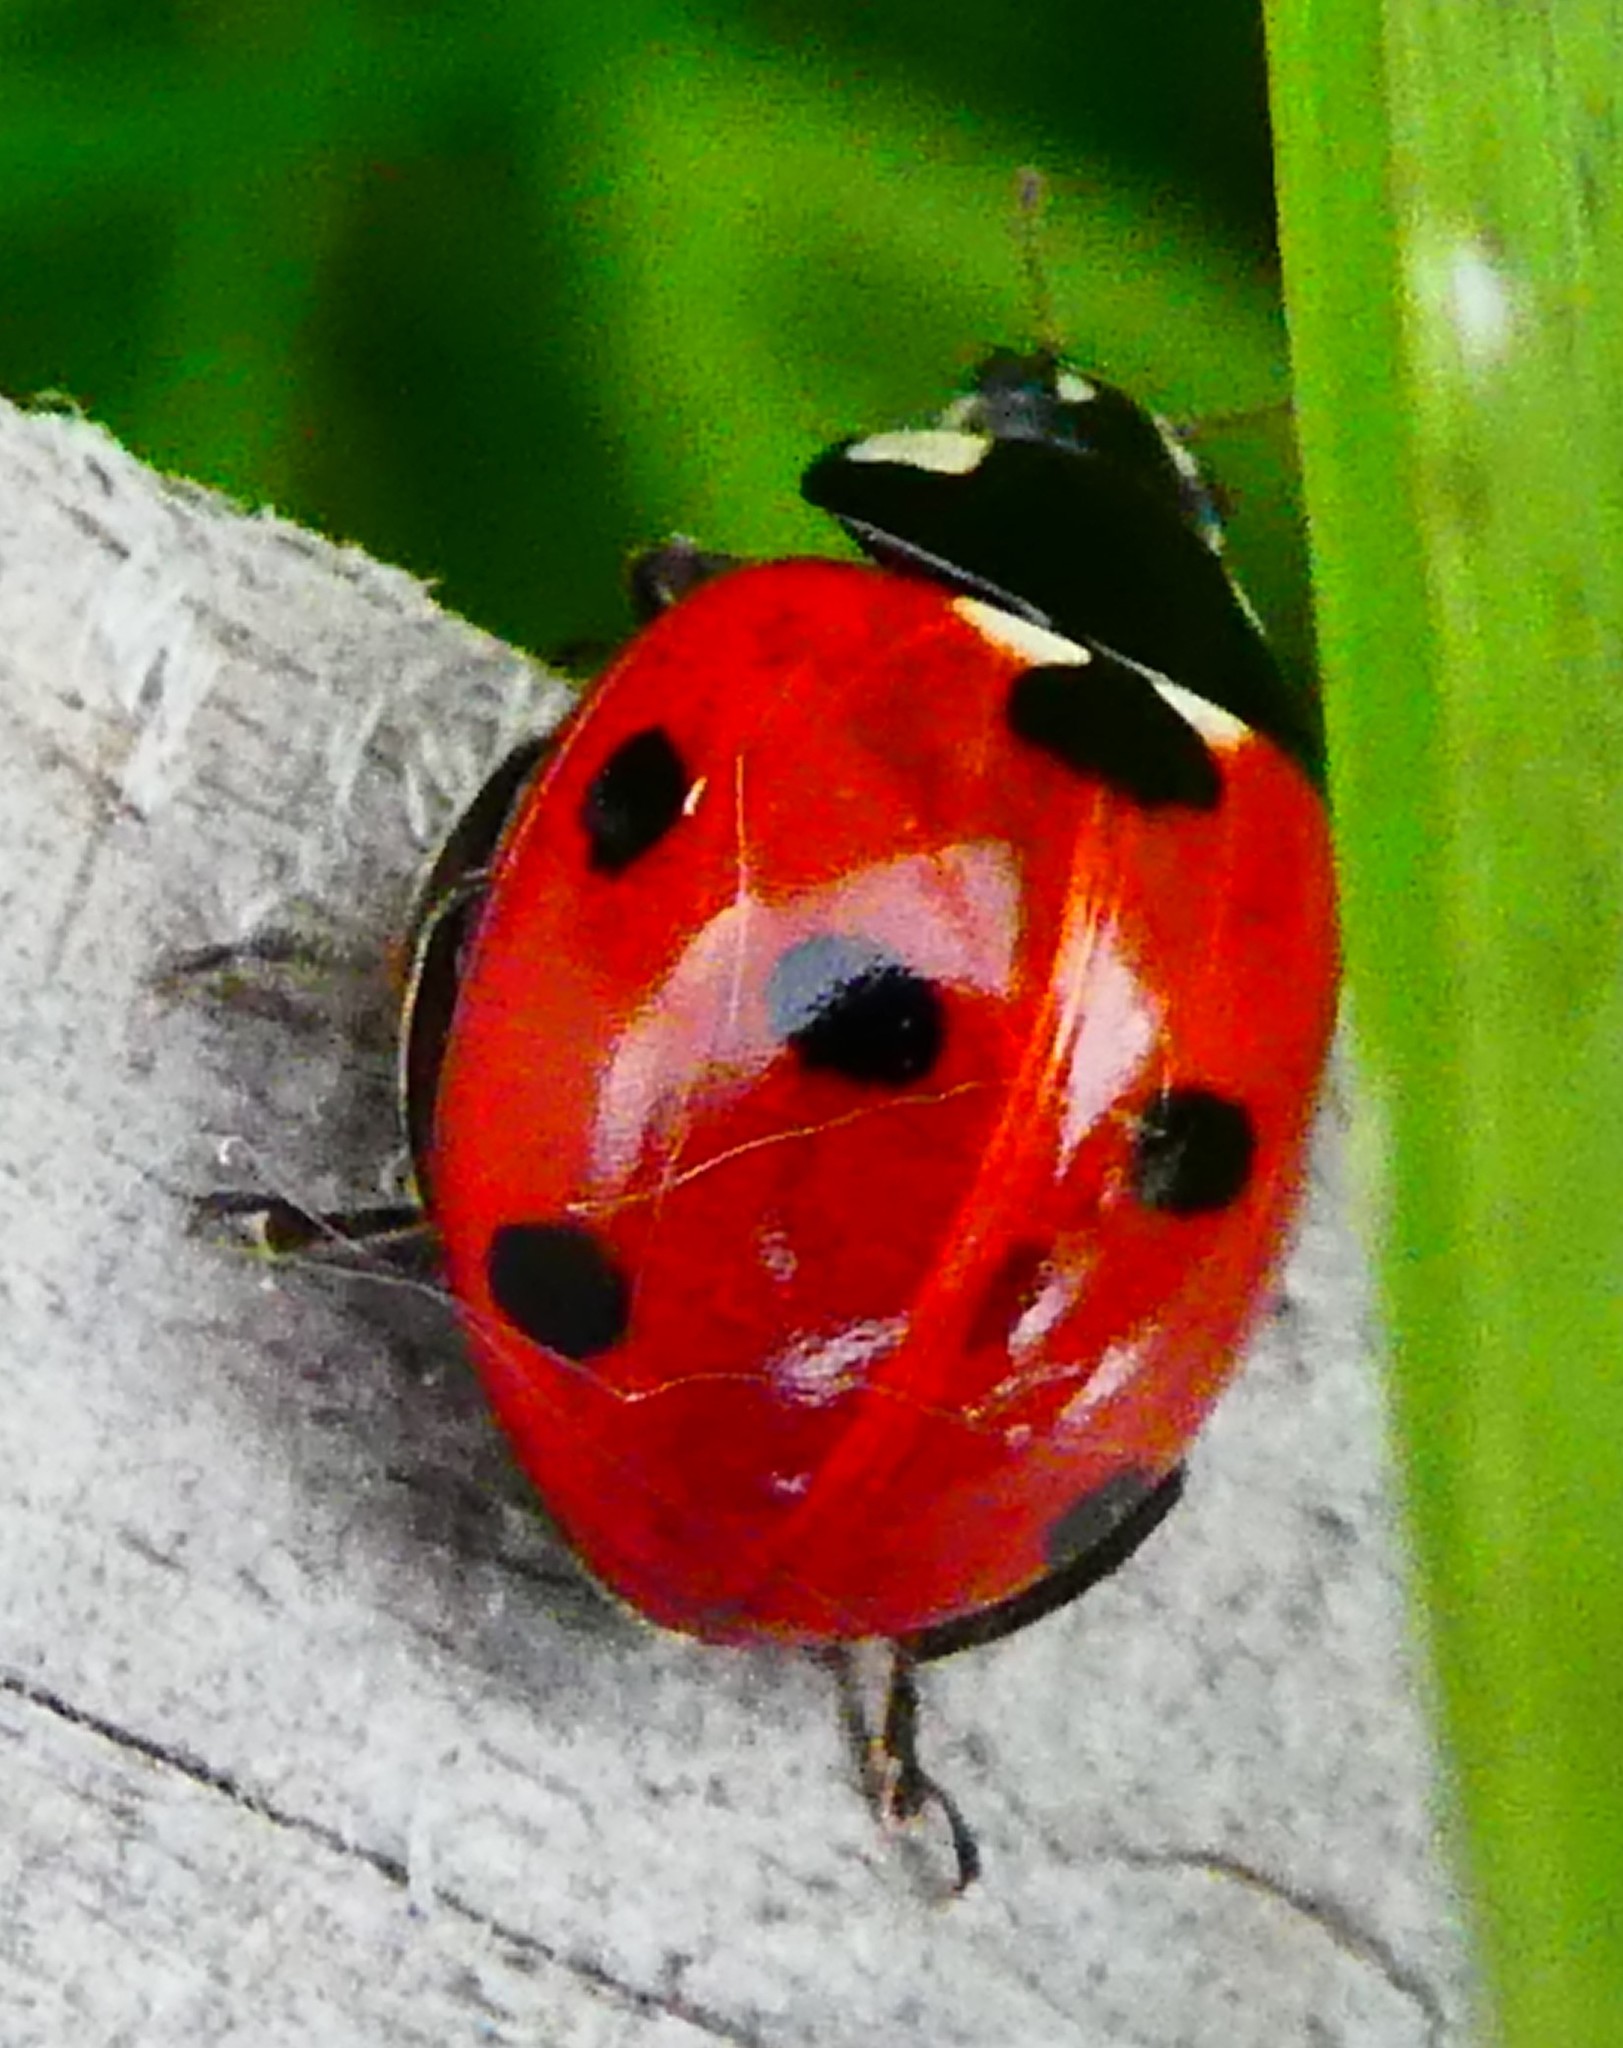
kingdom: Animalia
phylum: Arthropoda
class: Insecta
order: Coleoptera
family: Coccinellidae
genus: Coccinella
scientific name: Coccinella septempunctata
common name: Sevenspotted lady beetle
